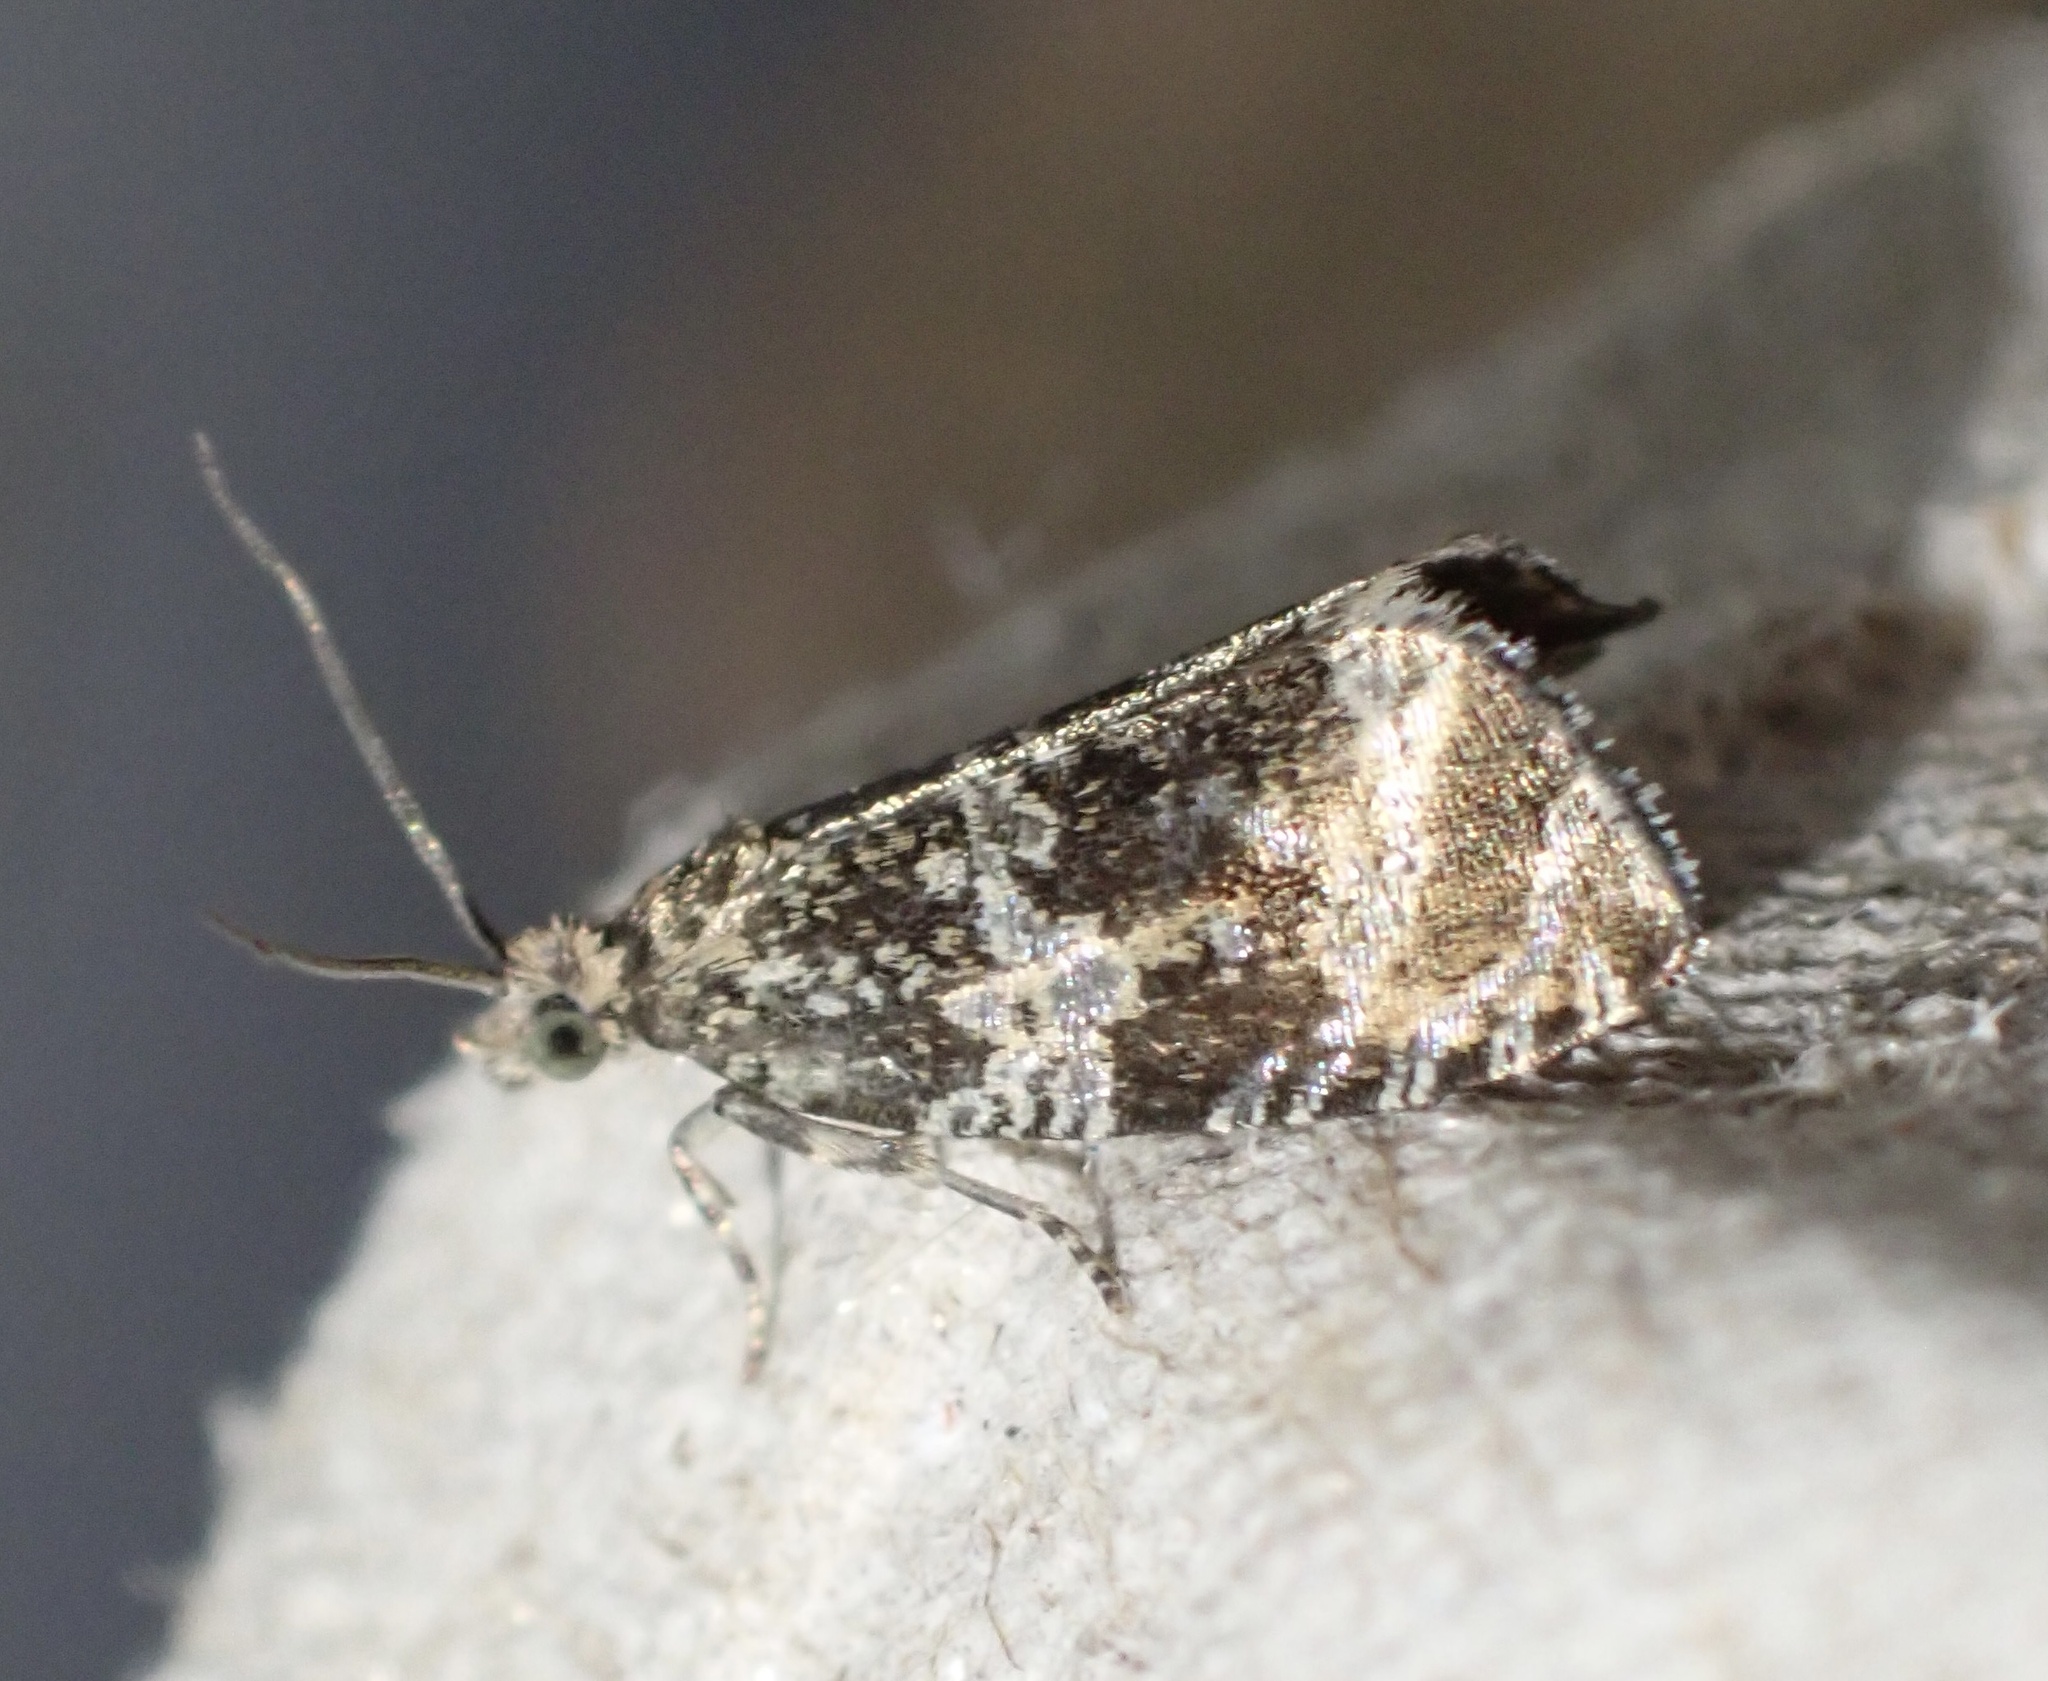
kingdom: Animalia
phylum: Arthropoda
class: Insecta
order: Lepidoptera
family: Tortricidae
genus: Syricoris
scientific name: Syricoris lacunana
